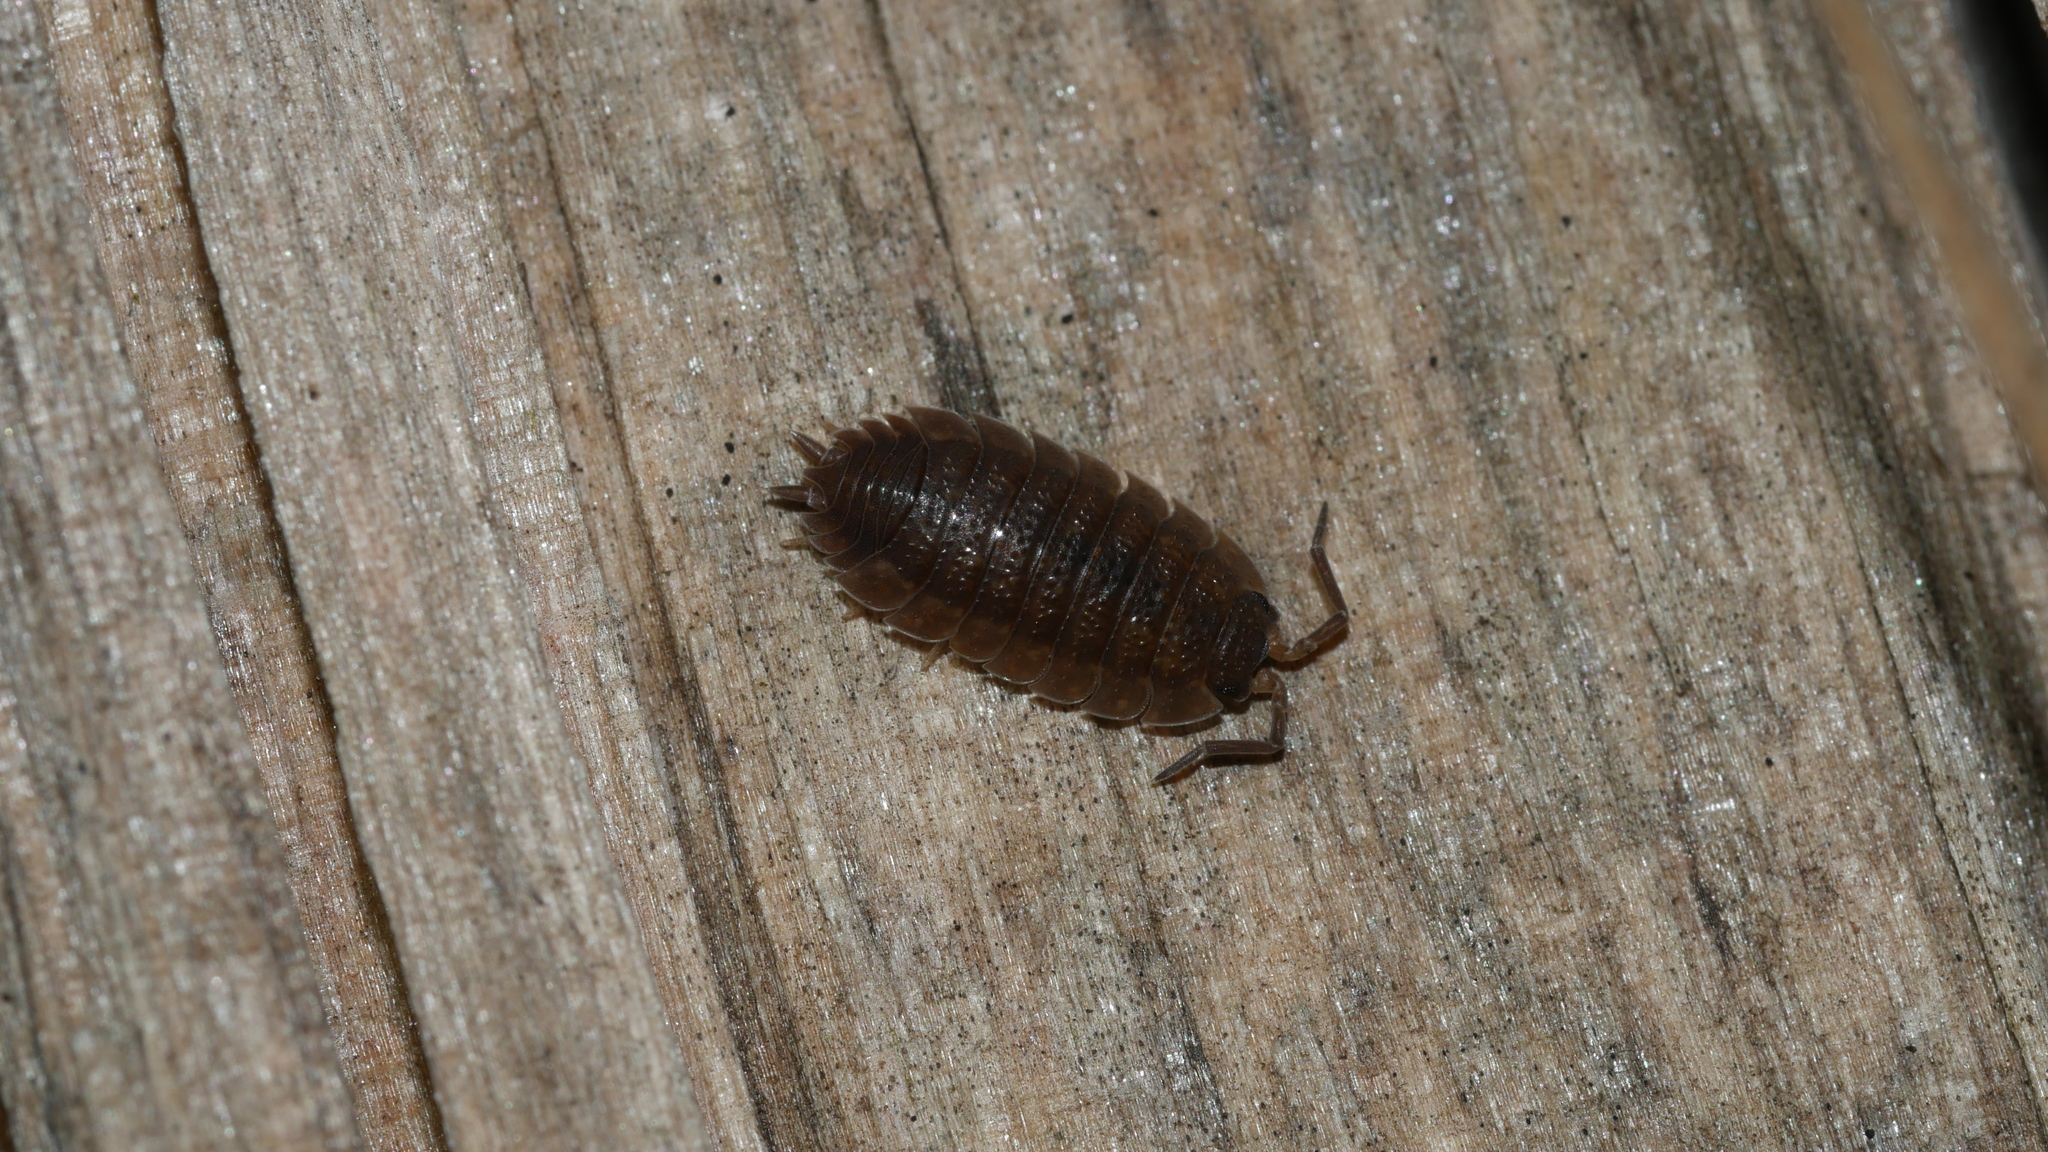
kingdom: Animalia
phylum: Arthropoda
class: Malacostraca
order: Isopoda
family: Porcellionidae
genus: Porcellio
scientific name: Porcellio scaber
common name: Common rough woodlouse
